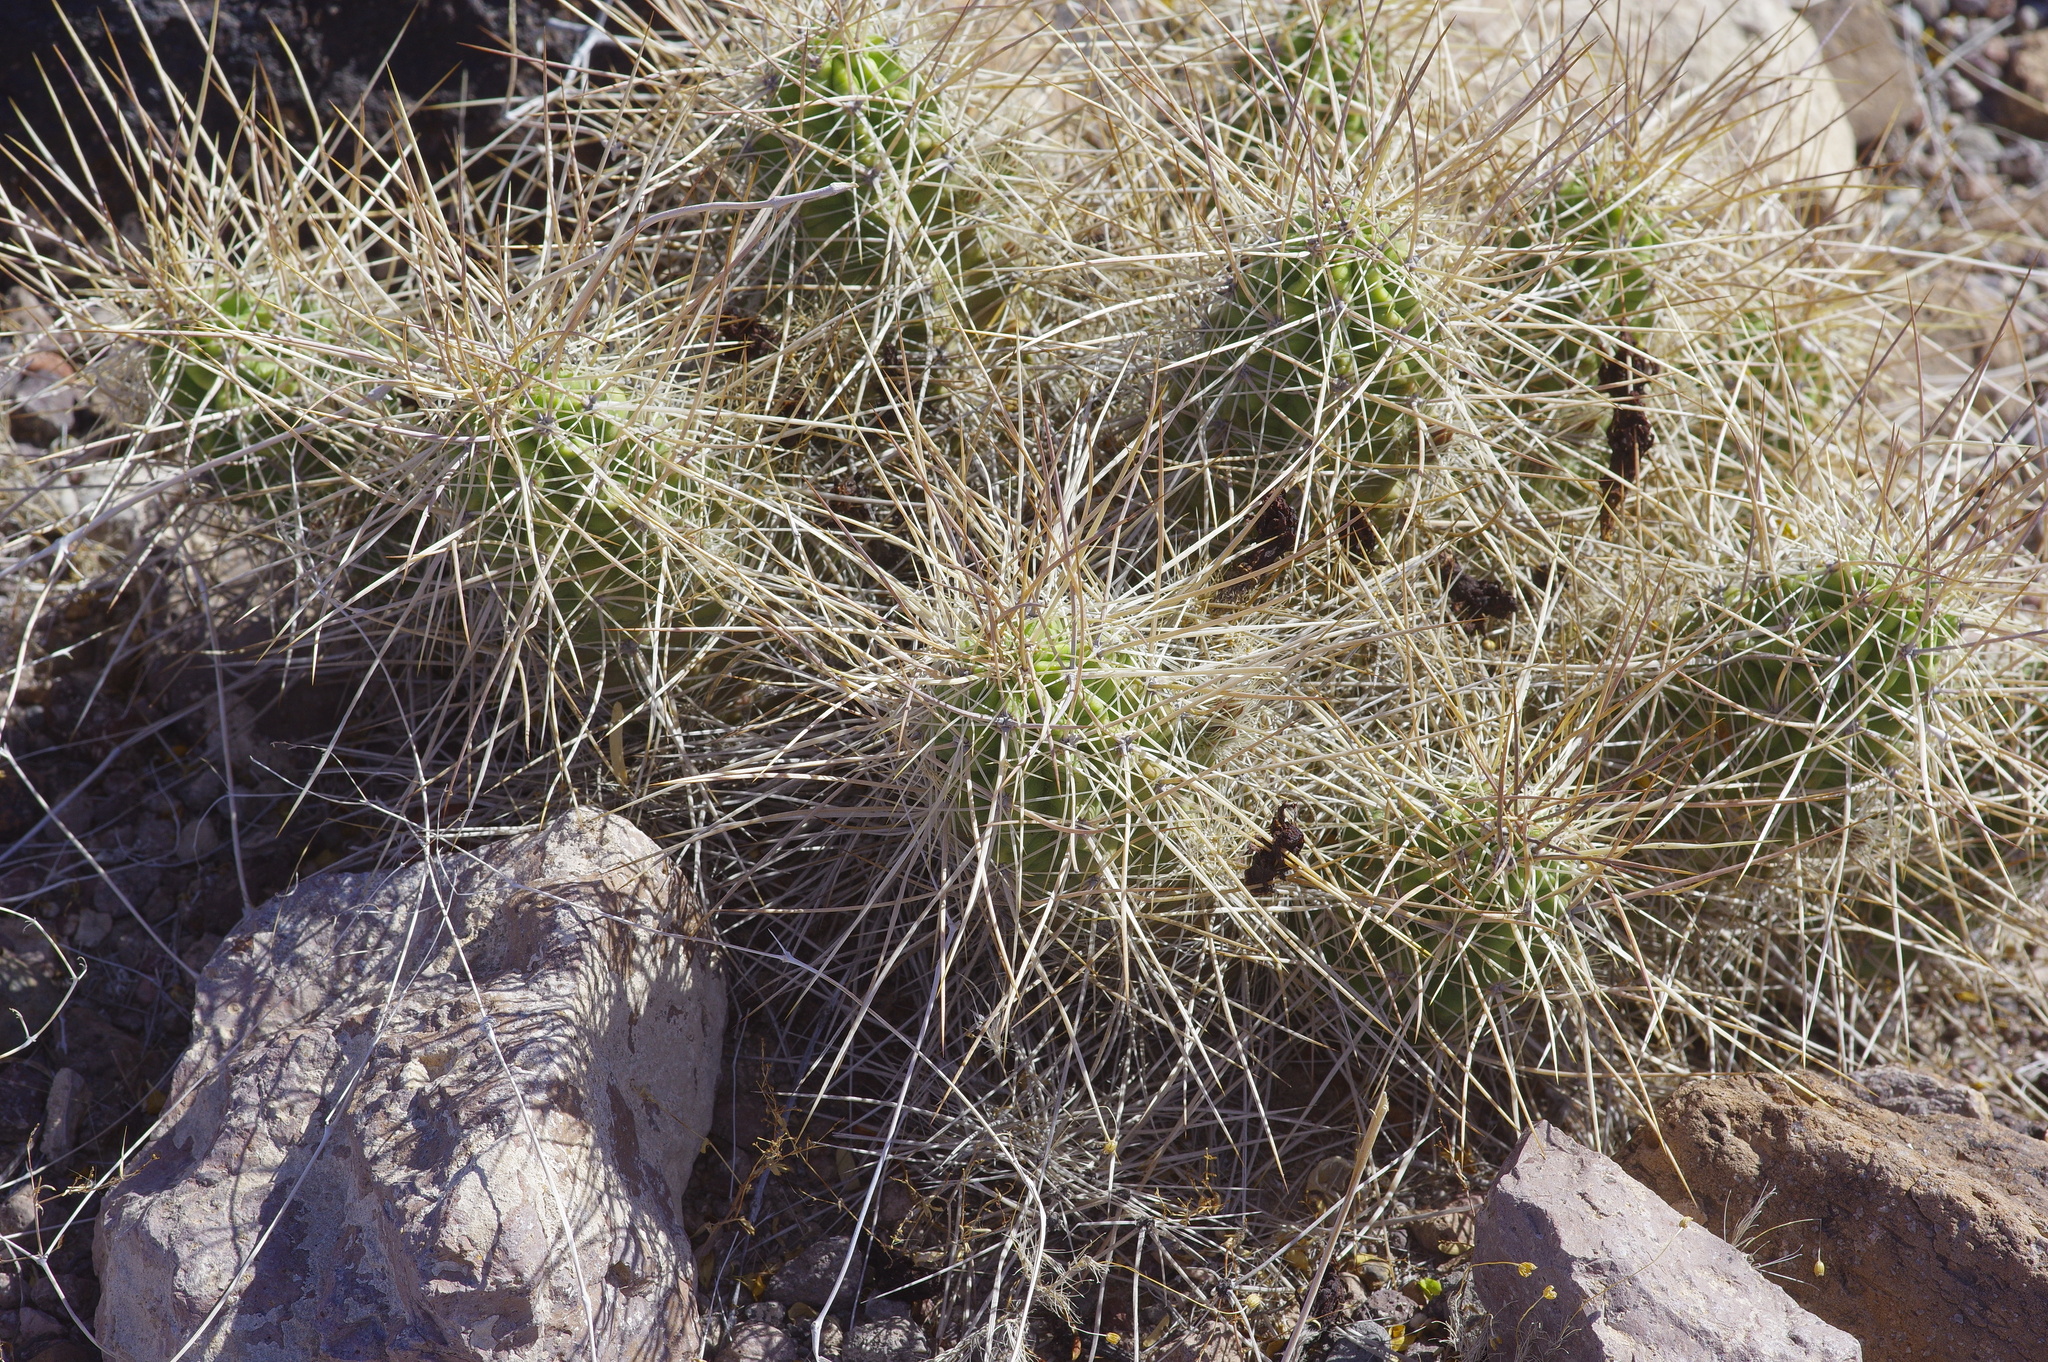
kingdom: Plantae
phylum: Tracheophyta
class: Magnoliopsida
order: Caryophyllales
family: Cactaceae
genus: Echinocereus
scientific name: Echinocereus enneacanthus
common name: Pitaya
